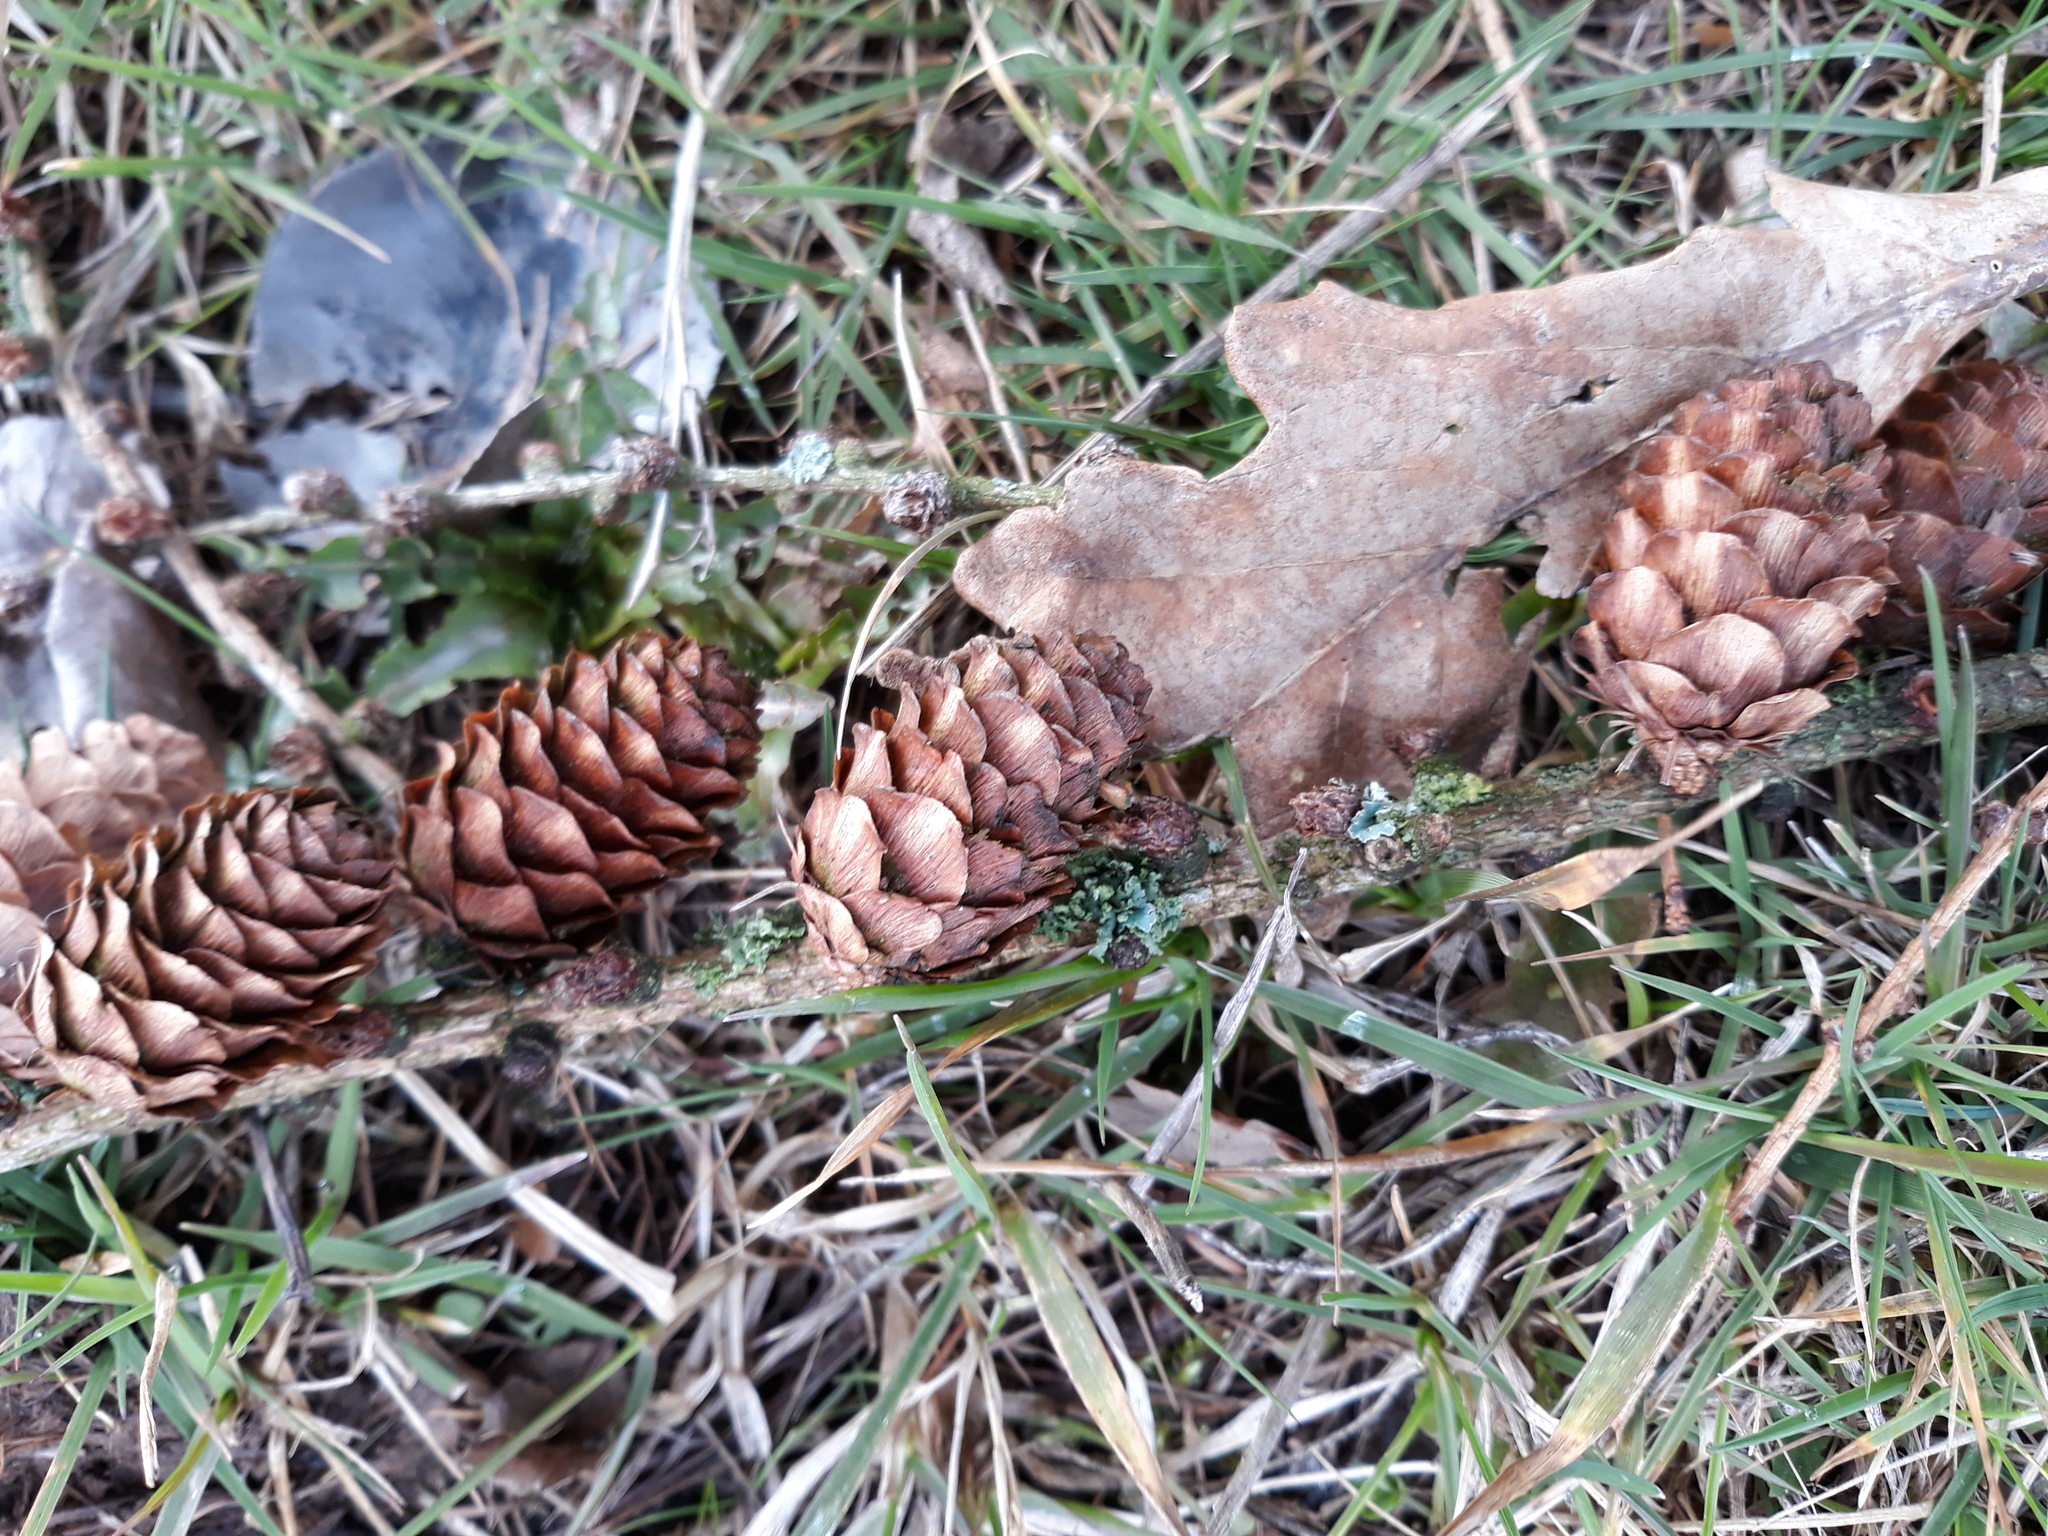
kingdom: Plantae
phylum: Tracheophyta
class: Pinopsida
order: Pinales
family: Pinaceae
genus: Larix
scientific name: Larix decidua
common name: European larch
